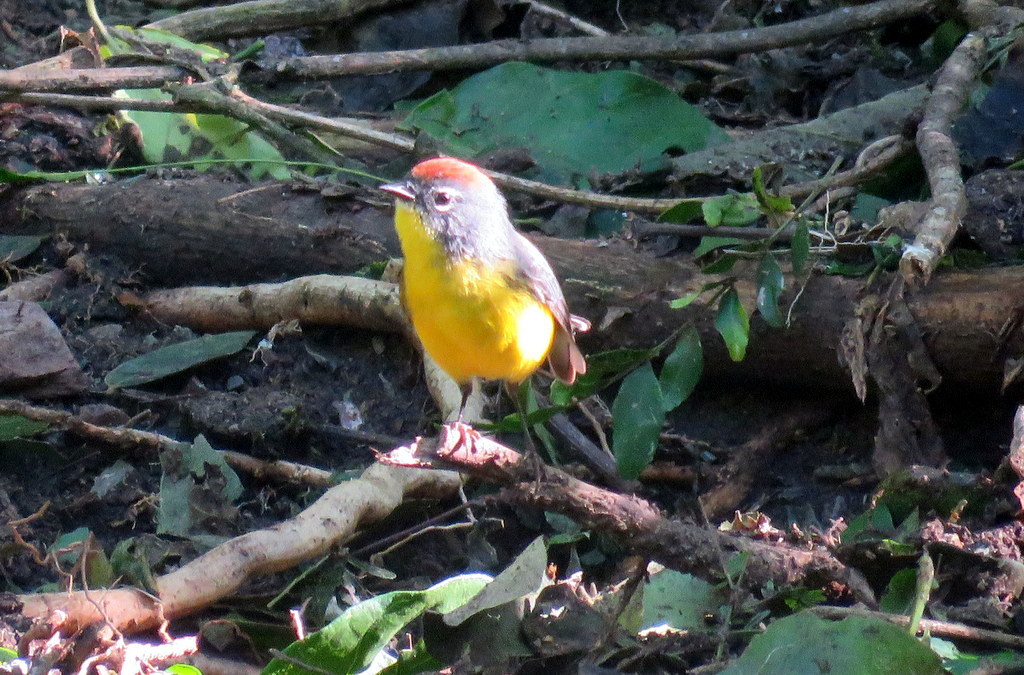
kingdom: Animalia
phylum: Chordata
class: Aves
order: Passeriformes
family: Parulidae
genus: Myioborus
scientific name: Myioborus brunniceps
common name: Brown-capped whitestart
